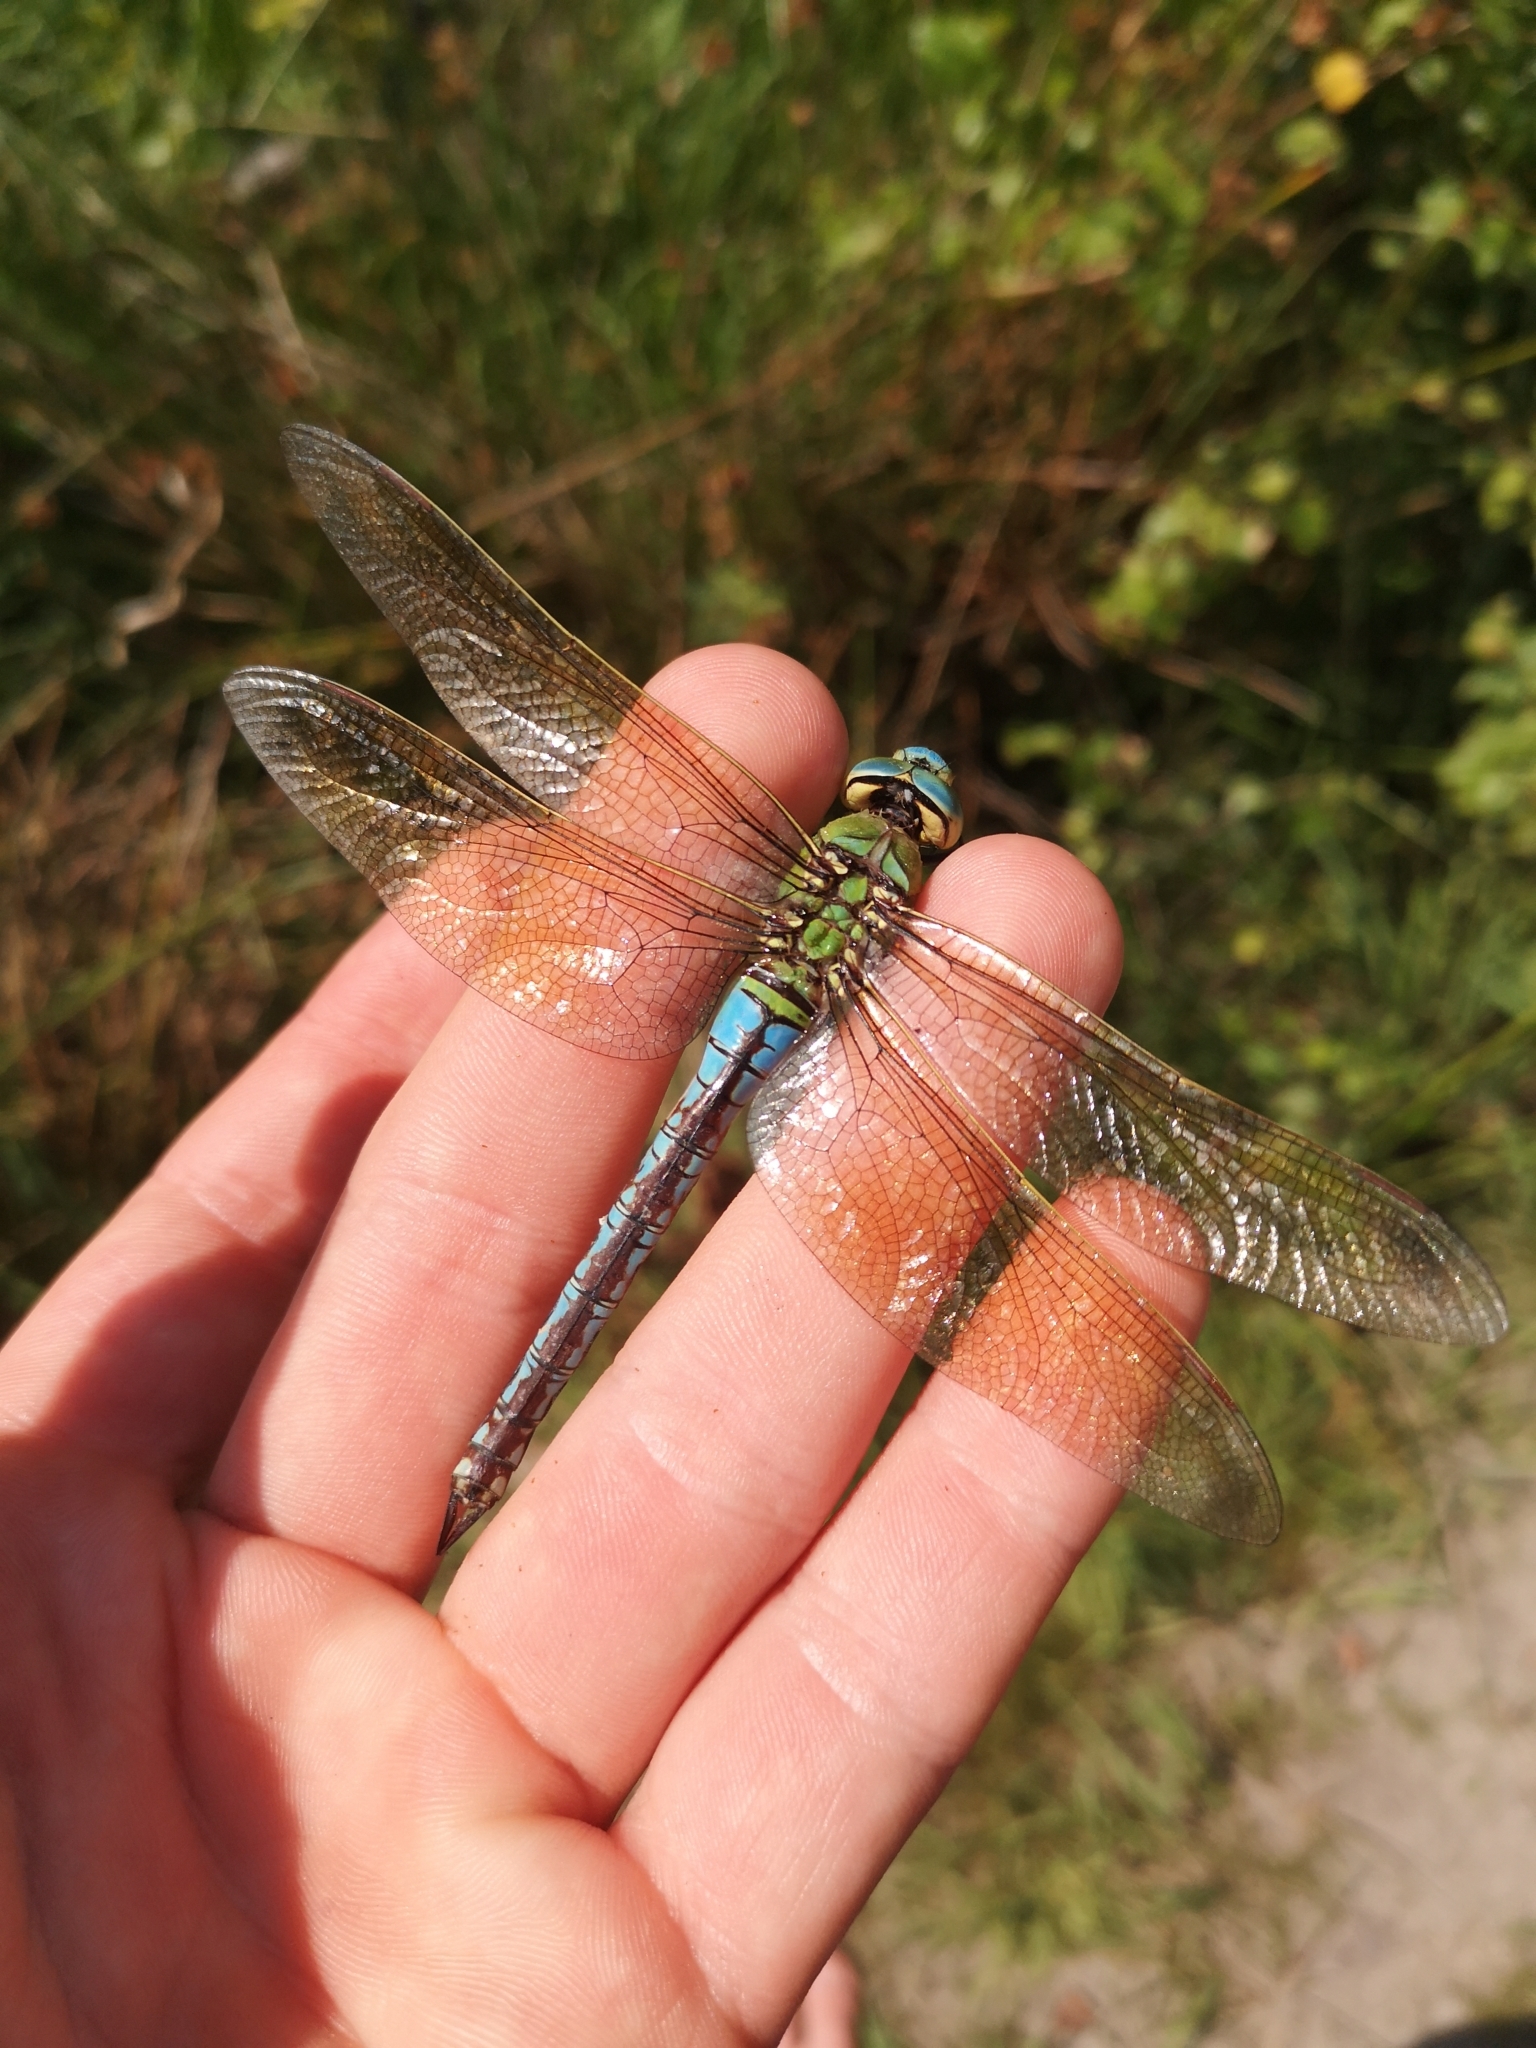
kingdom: Animalia
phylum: Arthropoda
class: Insecta
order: Odonata
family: Aeshnidae
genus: Anax
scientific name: Anax imperator
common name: Emperor dragonfly
